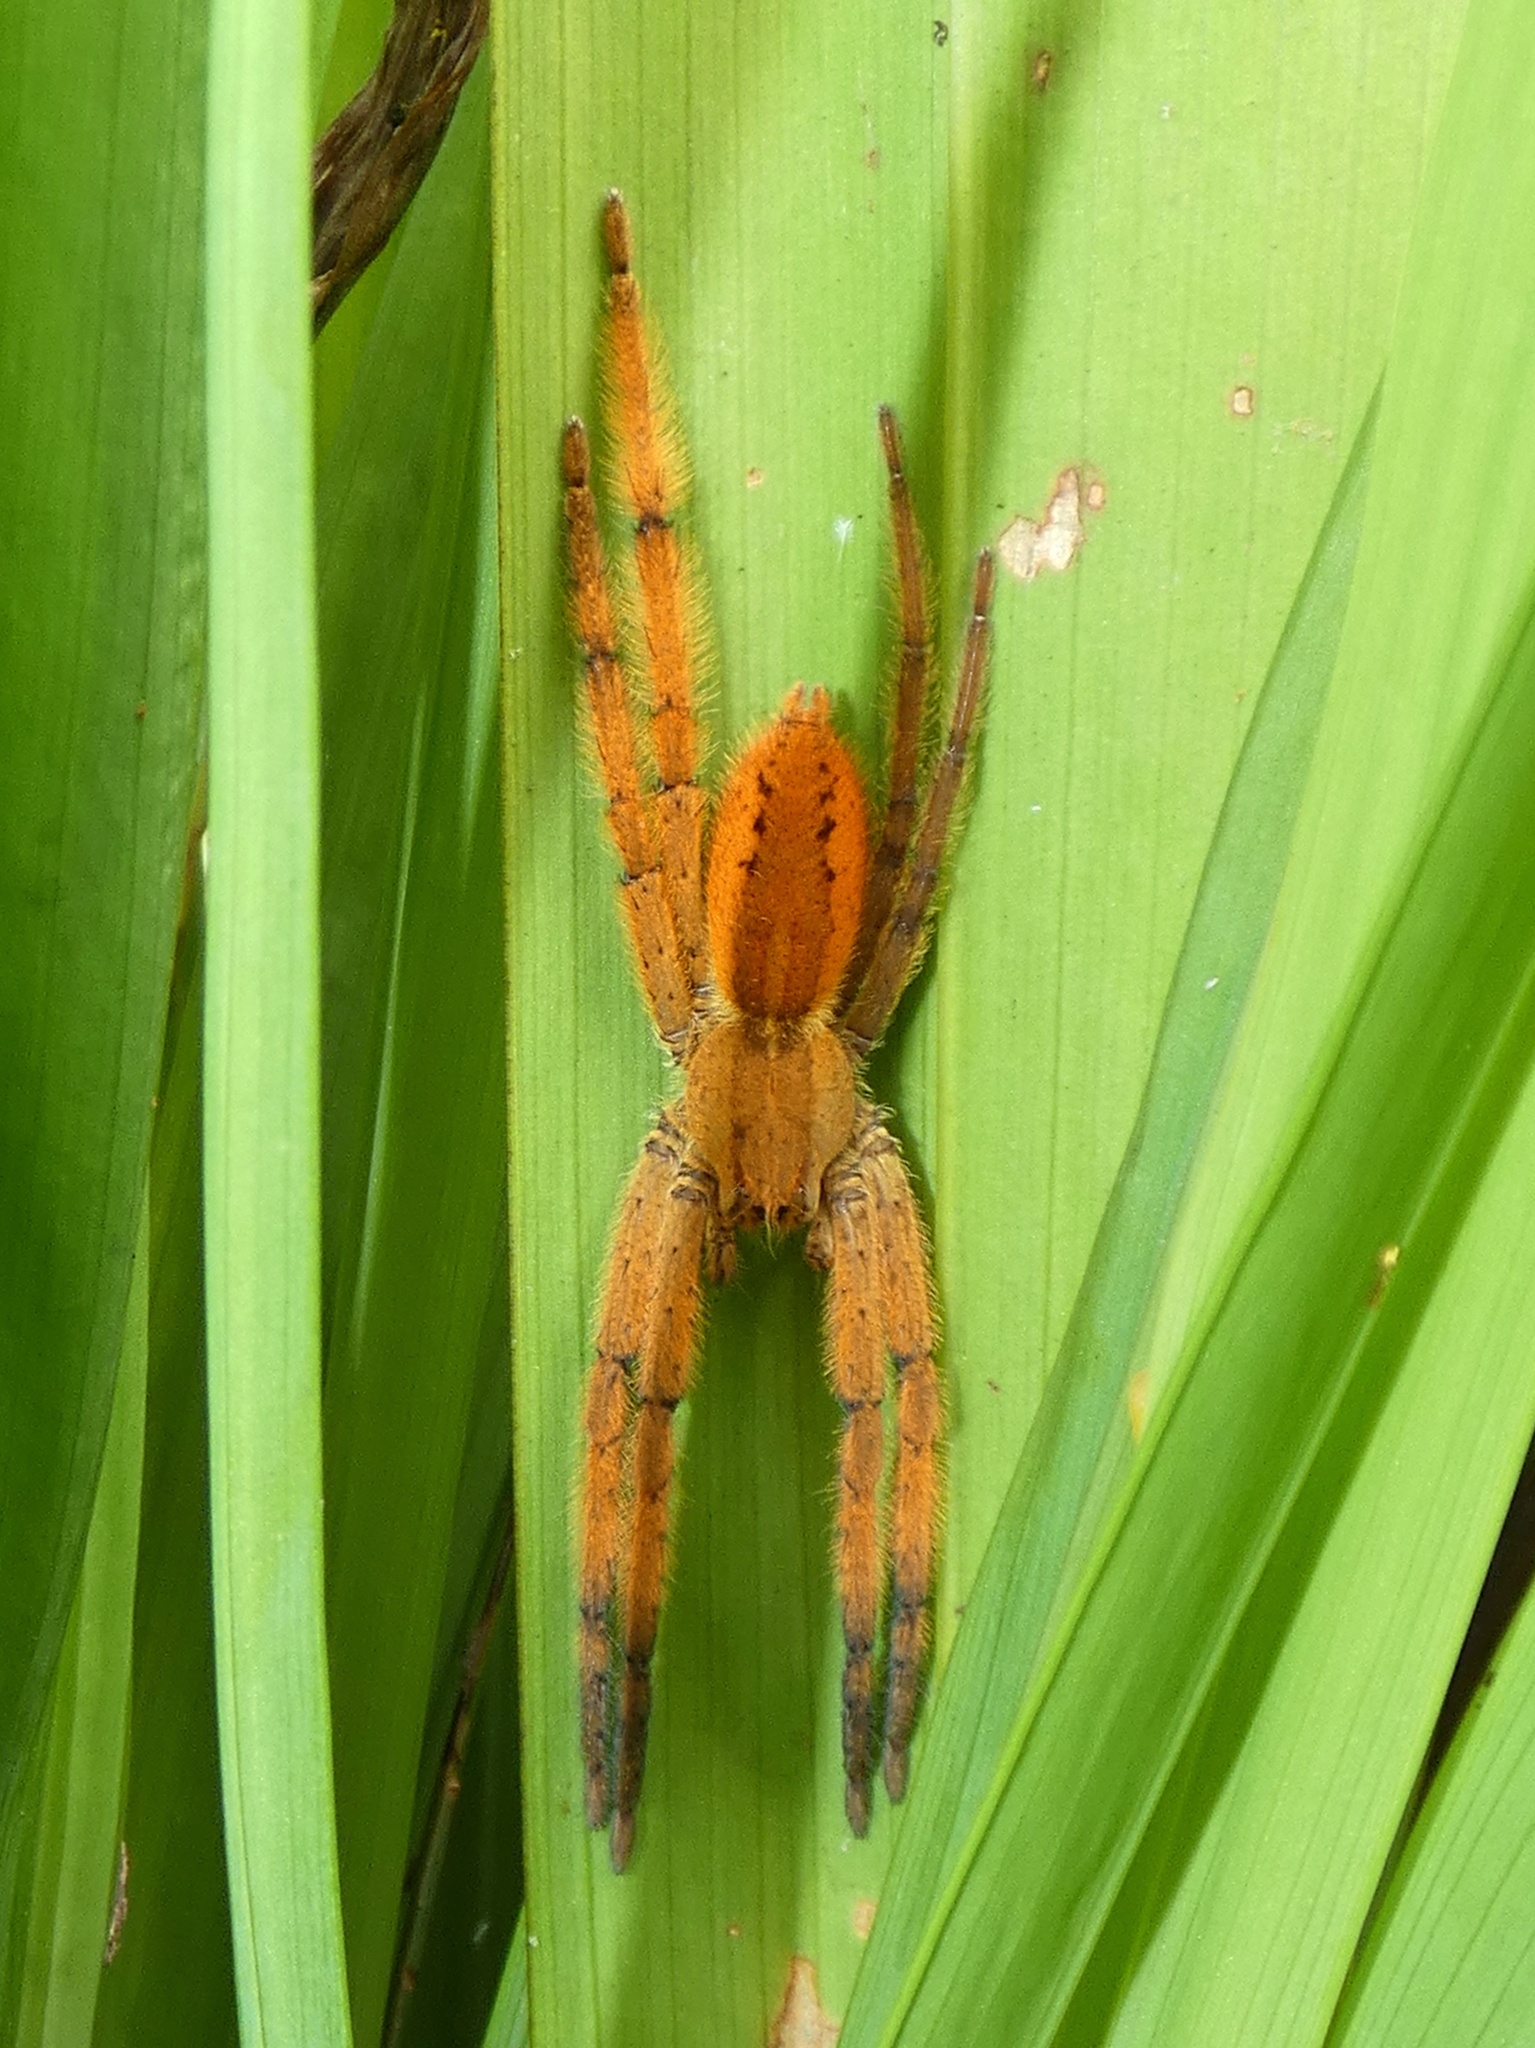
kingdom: Animalia
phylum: Arthropoda
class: Arachnida
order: Araneae
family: Trechaleidae
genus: Cupiennius
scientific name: Cupiennius getazi
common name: Wandering spiders
